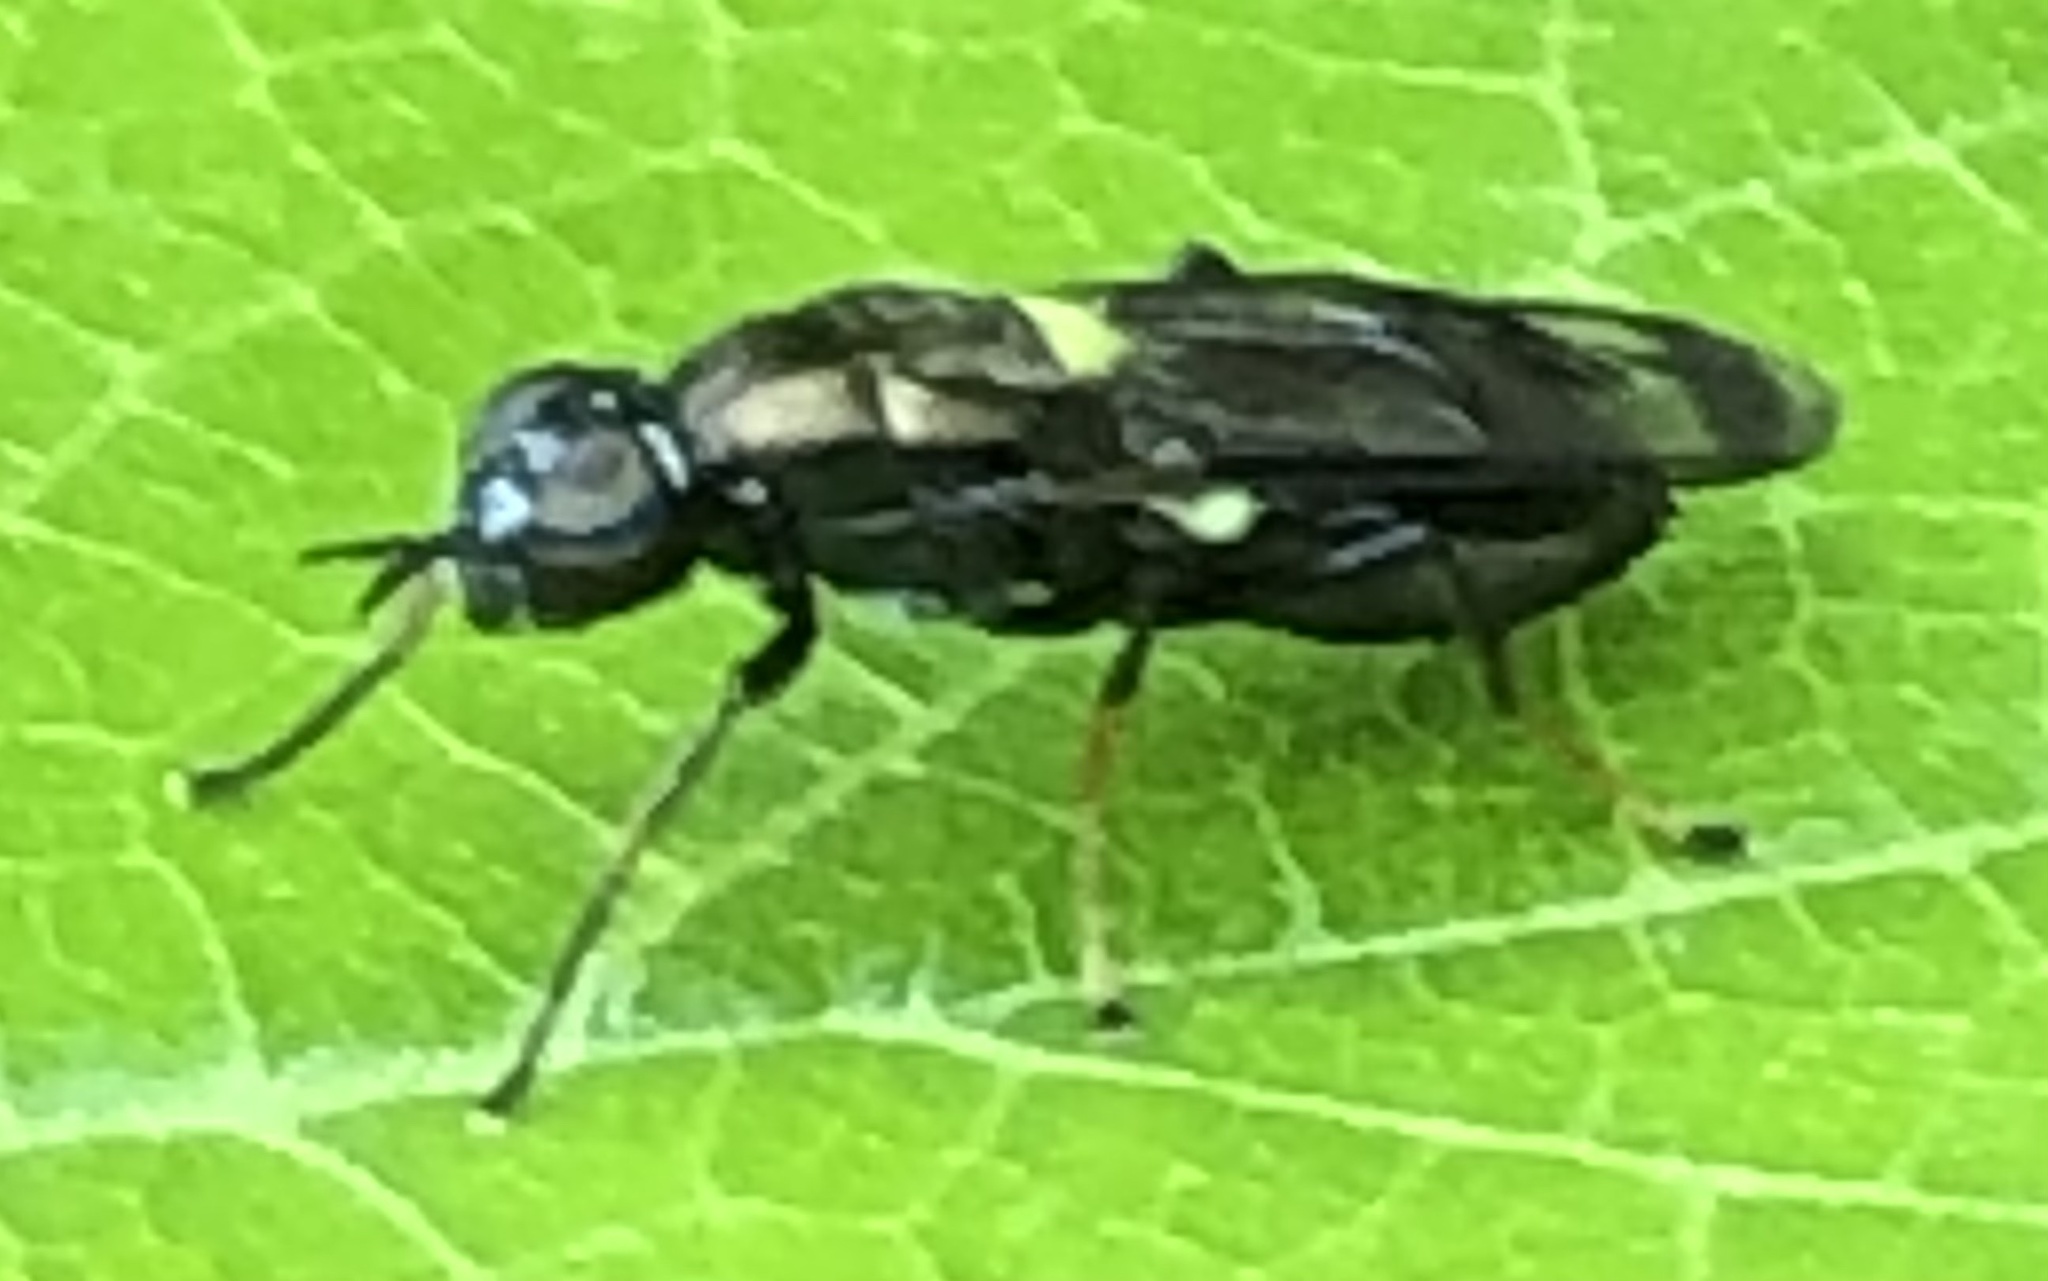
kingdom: Animalia
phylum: Arthropoda
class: Insecta
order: Diptera
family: Stratiomyidae
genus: Myxosargus
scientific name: Myxosargus nigricormis
